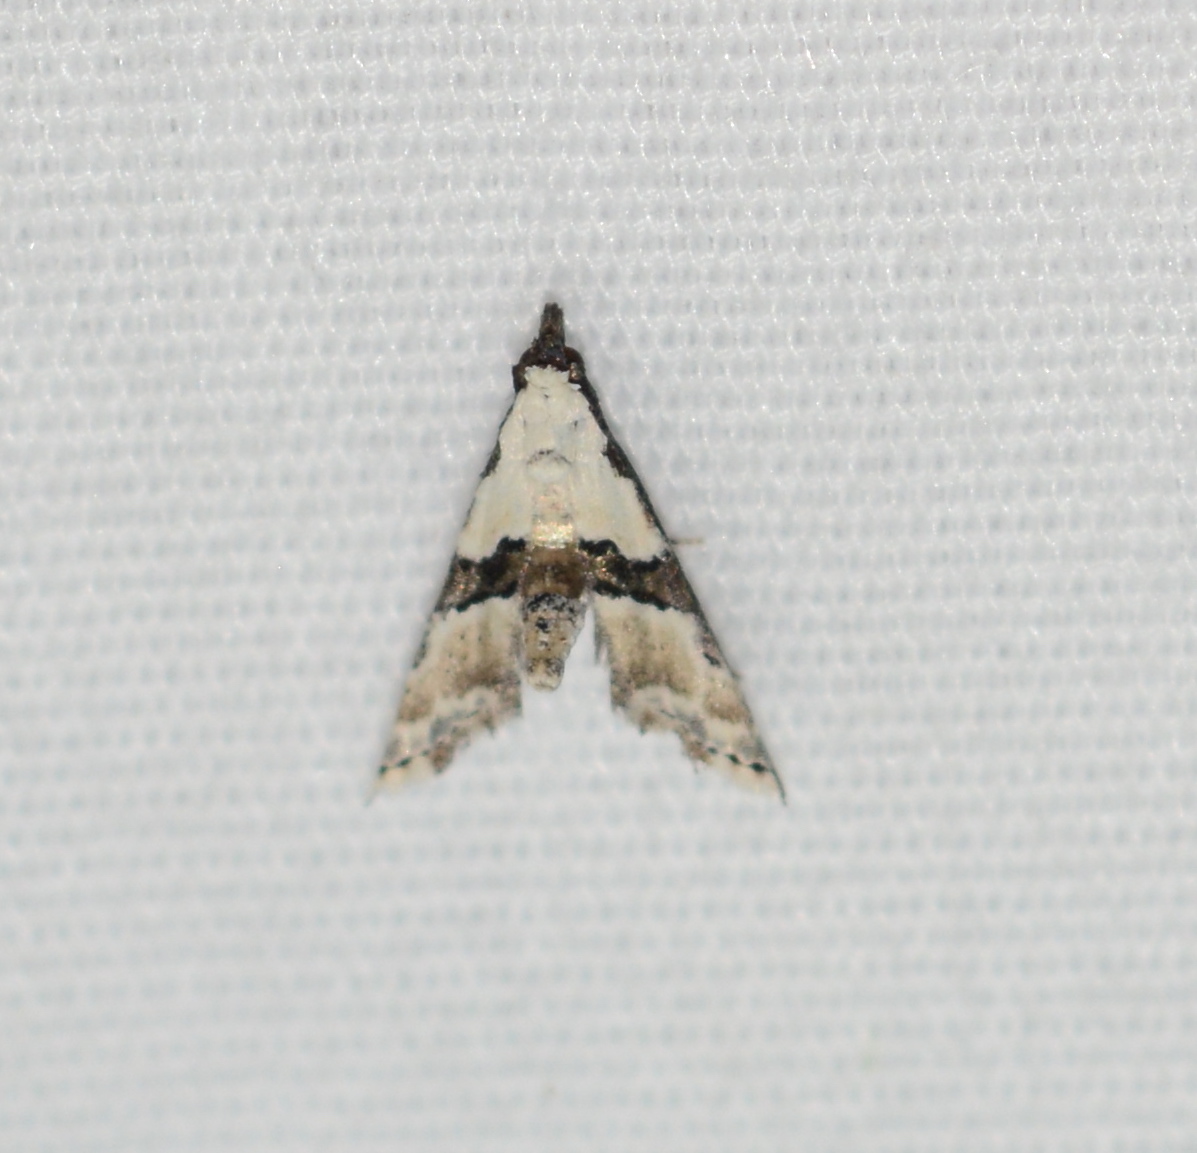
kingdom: Animalia
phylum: Arthropoda
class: Insecta
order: Lepidoptera
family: Noctuidae
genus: Nigetia
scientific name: Nigetia formosalis
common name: Thin-winged owlet
